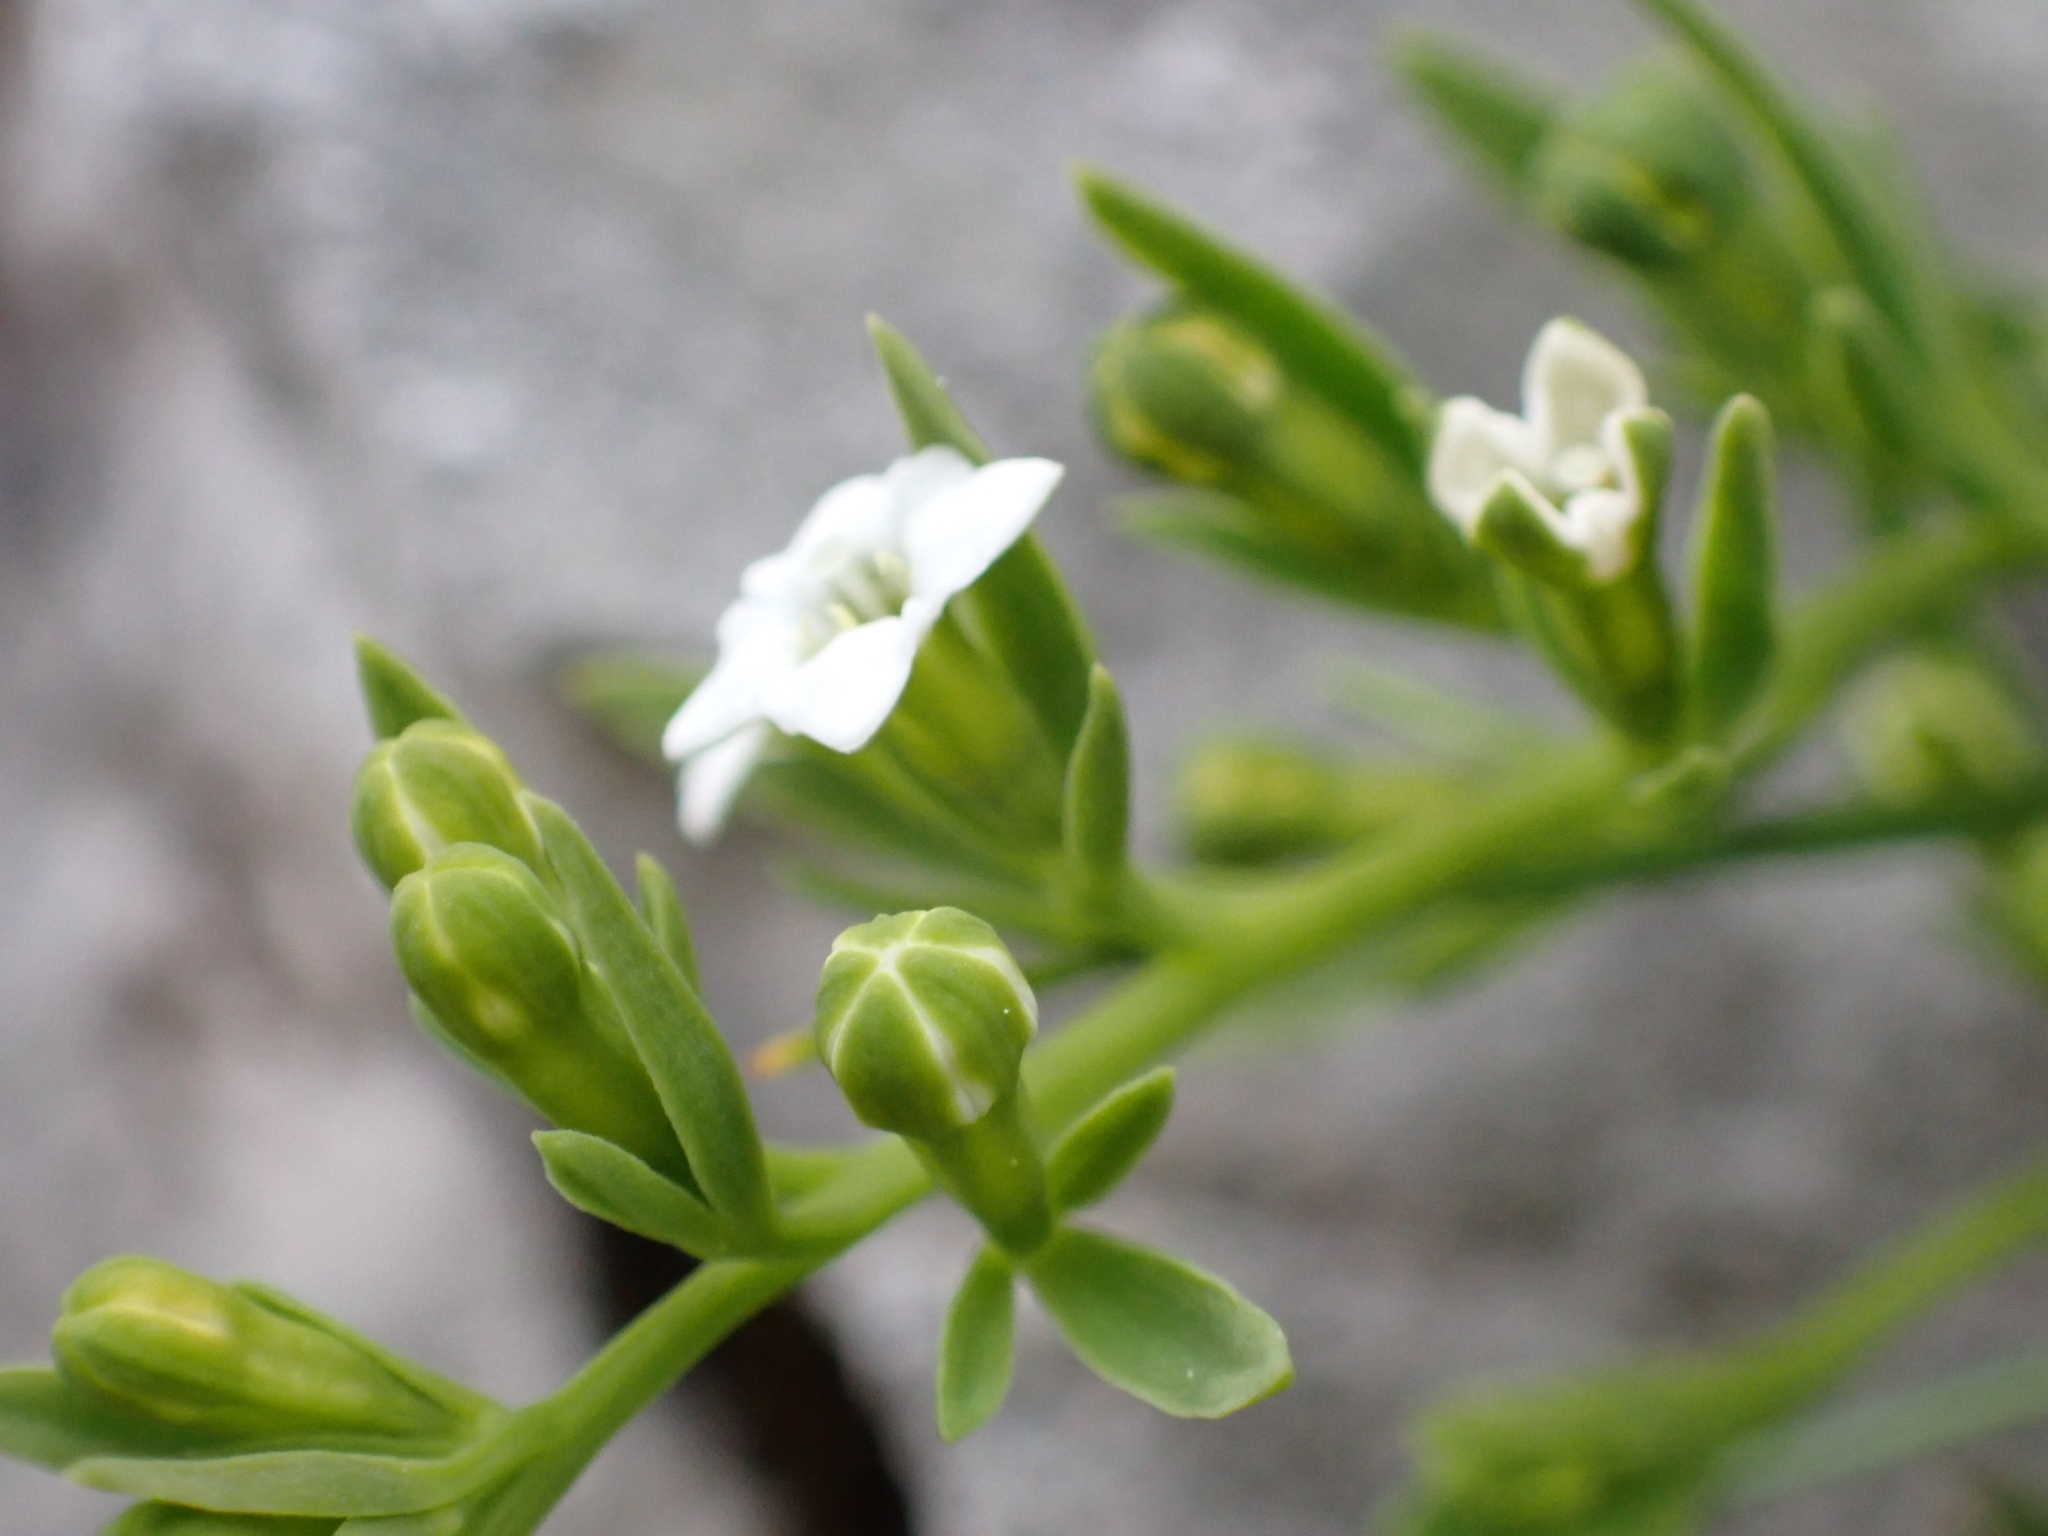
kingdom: Plantae
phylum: Tracheophyta
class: Magnoliopsida
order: Santalales
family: Thesiaceae
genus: Thesium
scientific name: Thesium alpinum
